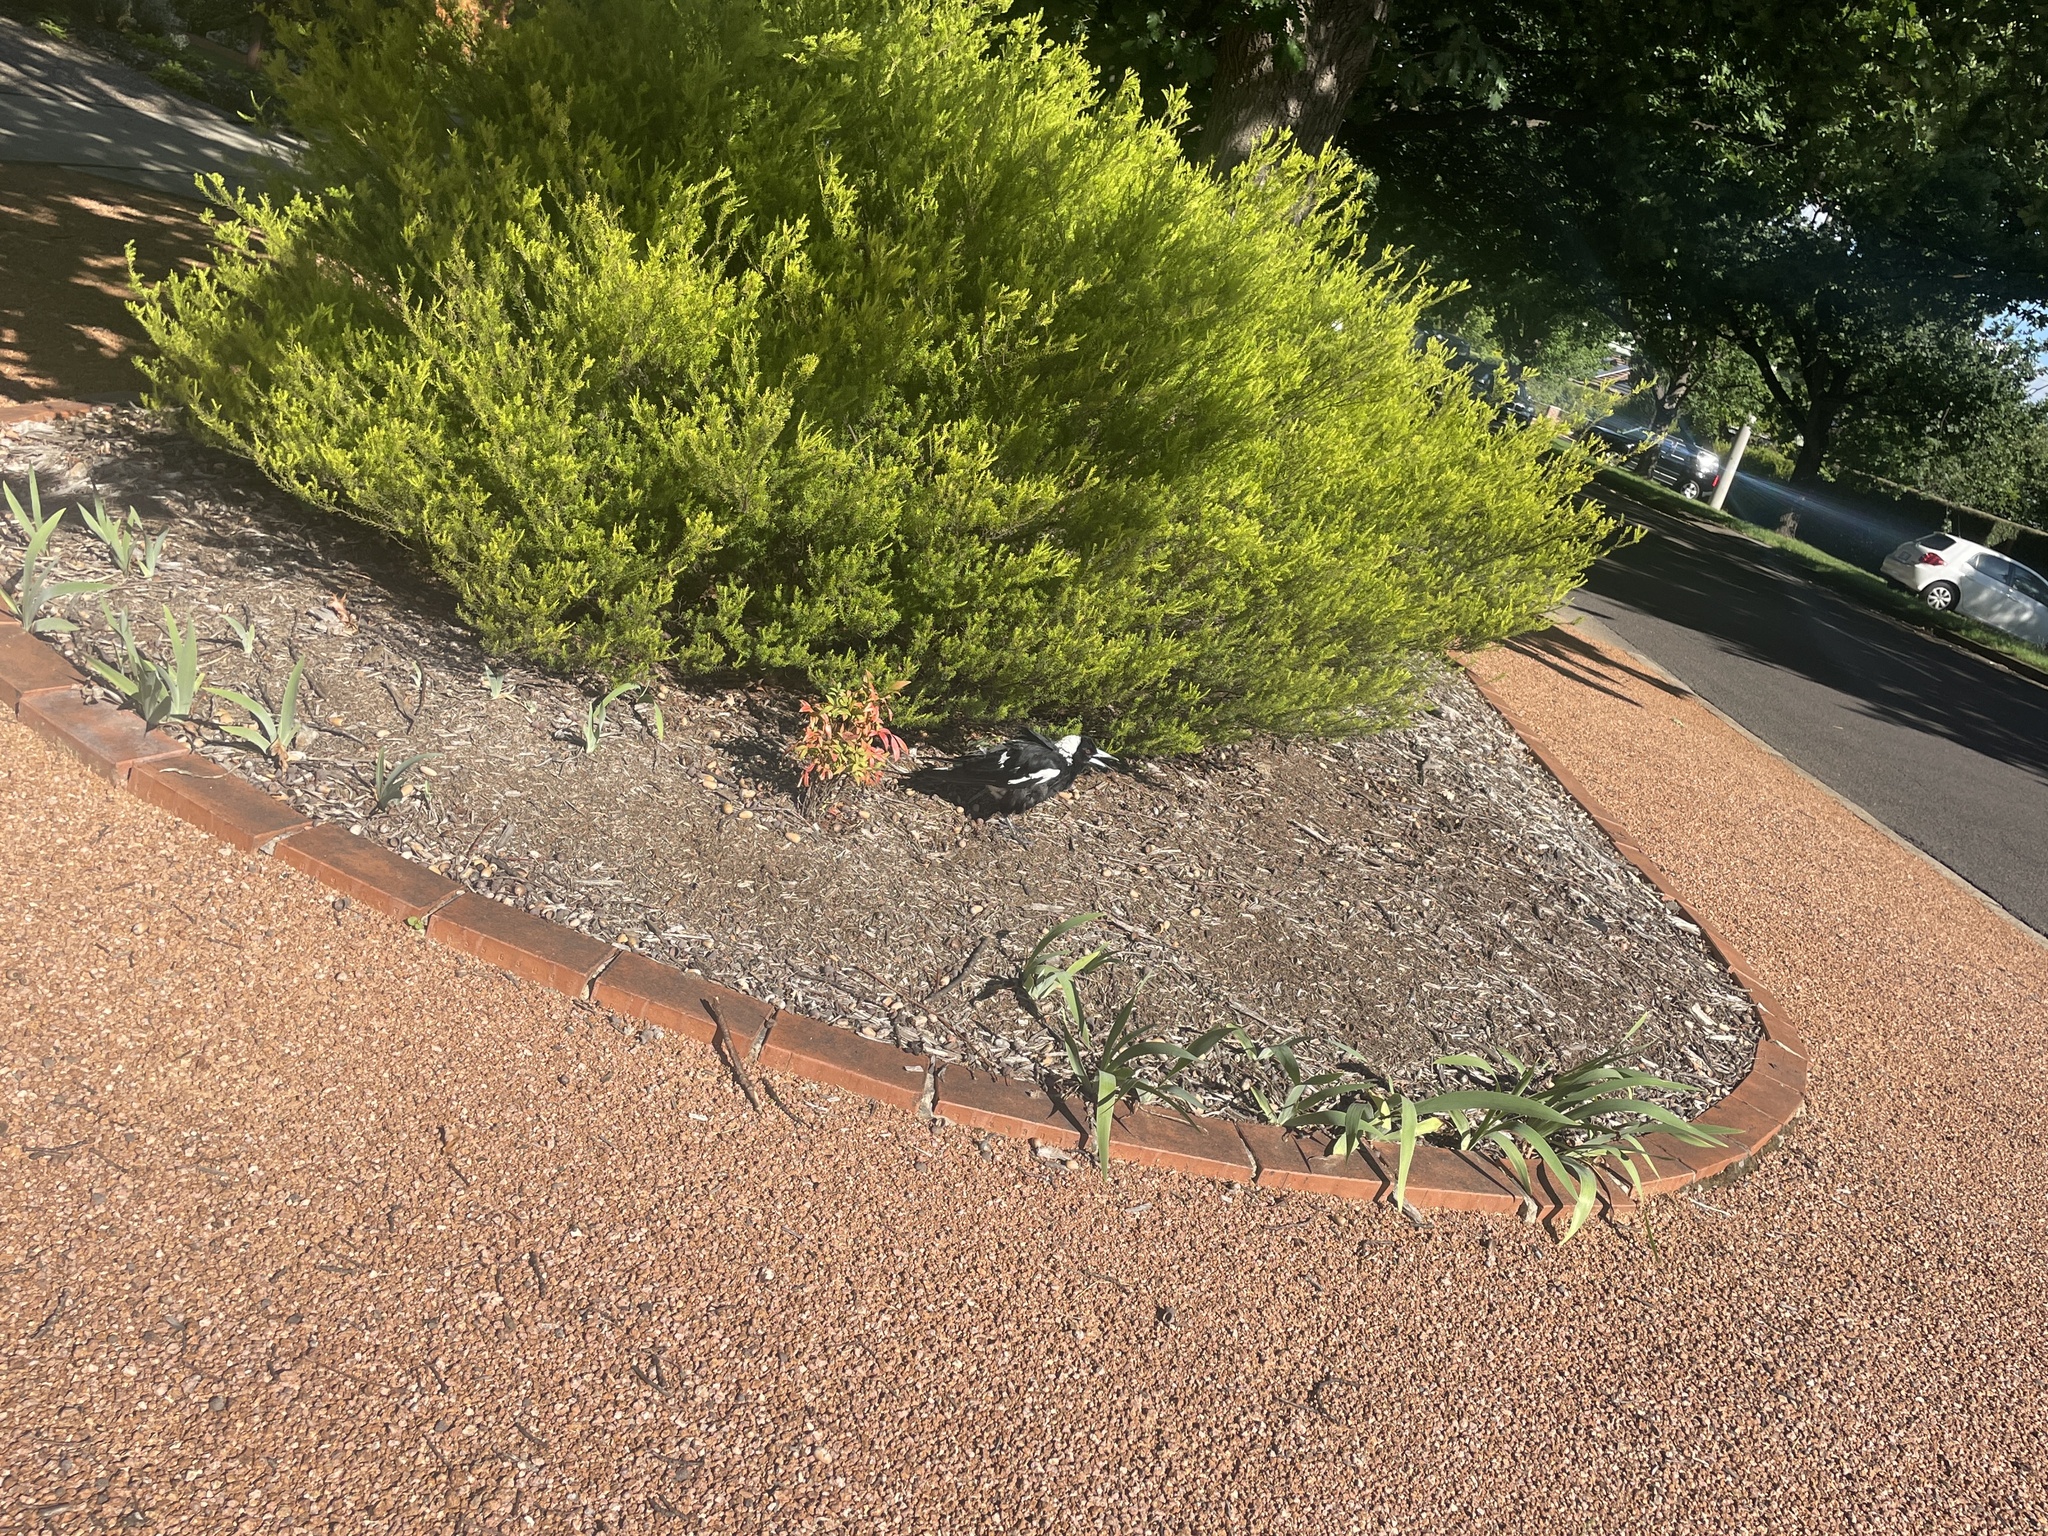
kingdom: Animalia
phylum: Chordata
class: Aves
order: Passeriformes
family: Cracticidae
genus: Gymnorhina
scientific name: Gymnorhina tibicen
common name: Australian magpie
